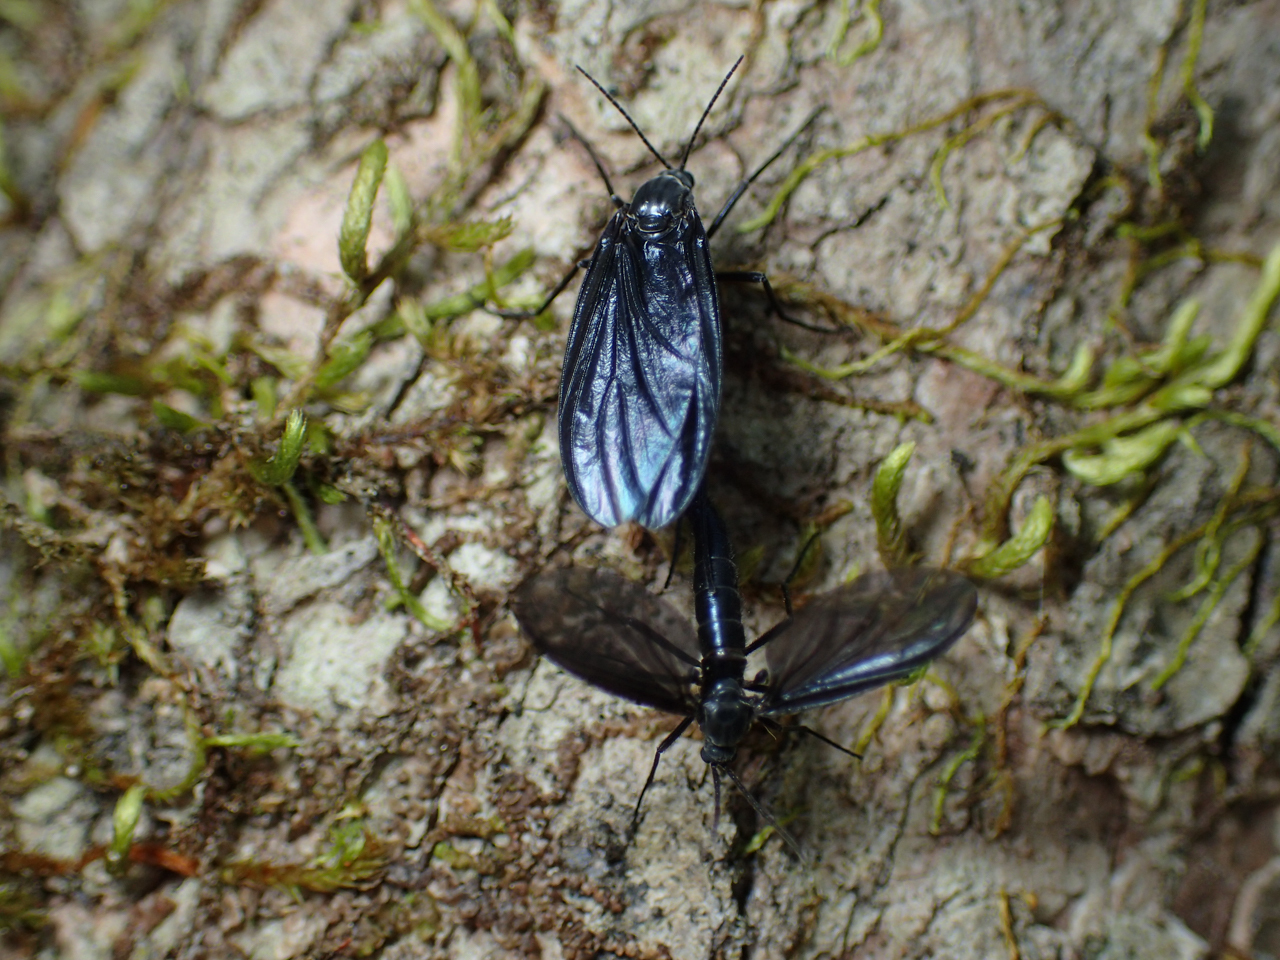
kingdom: Animalia
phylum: Arthropoda
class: Insecta
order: Diptera
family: Sciaridae
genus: Odontosciara
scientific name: Odontosciara nigra
